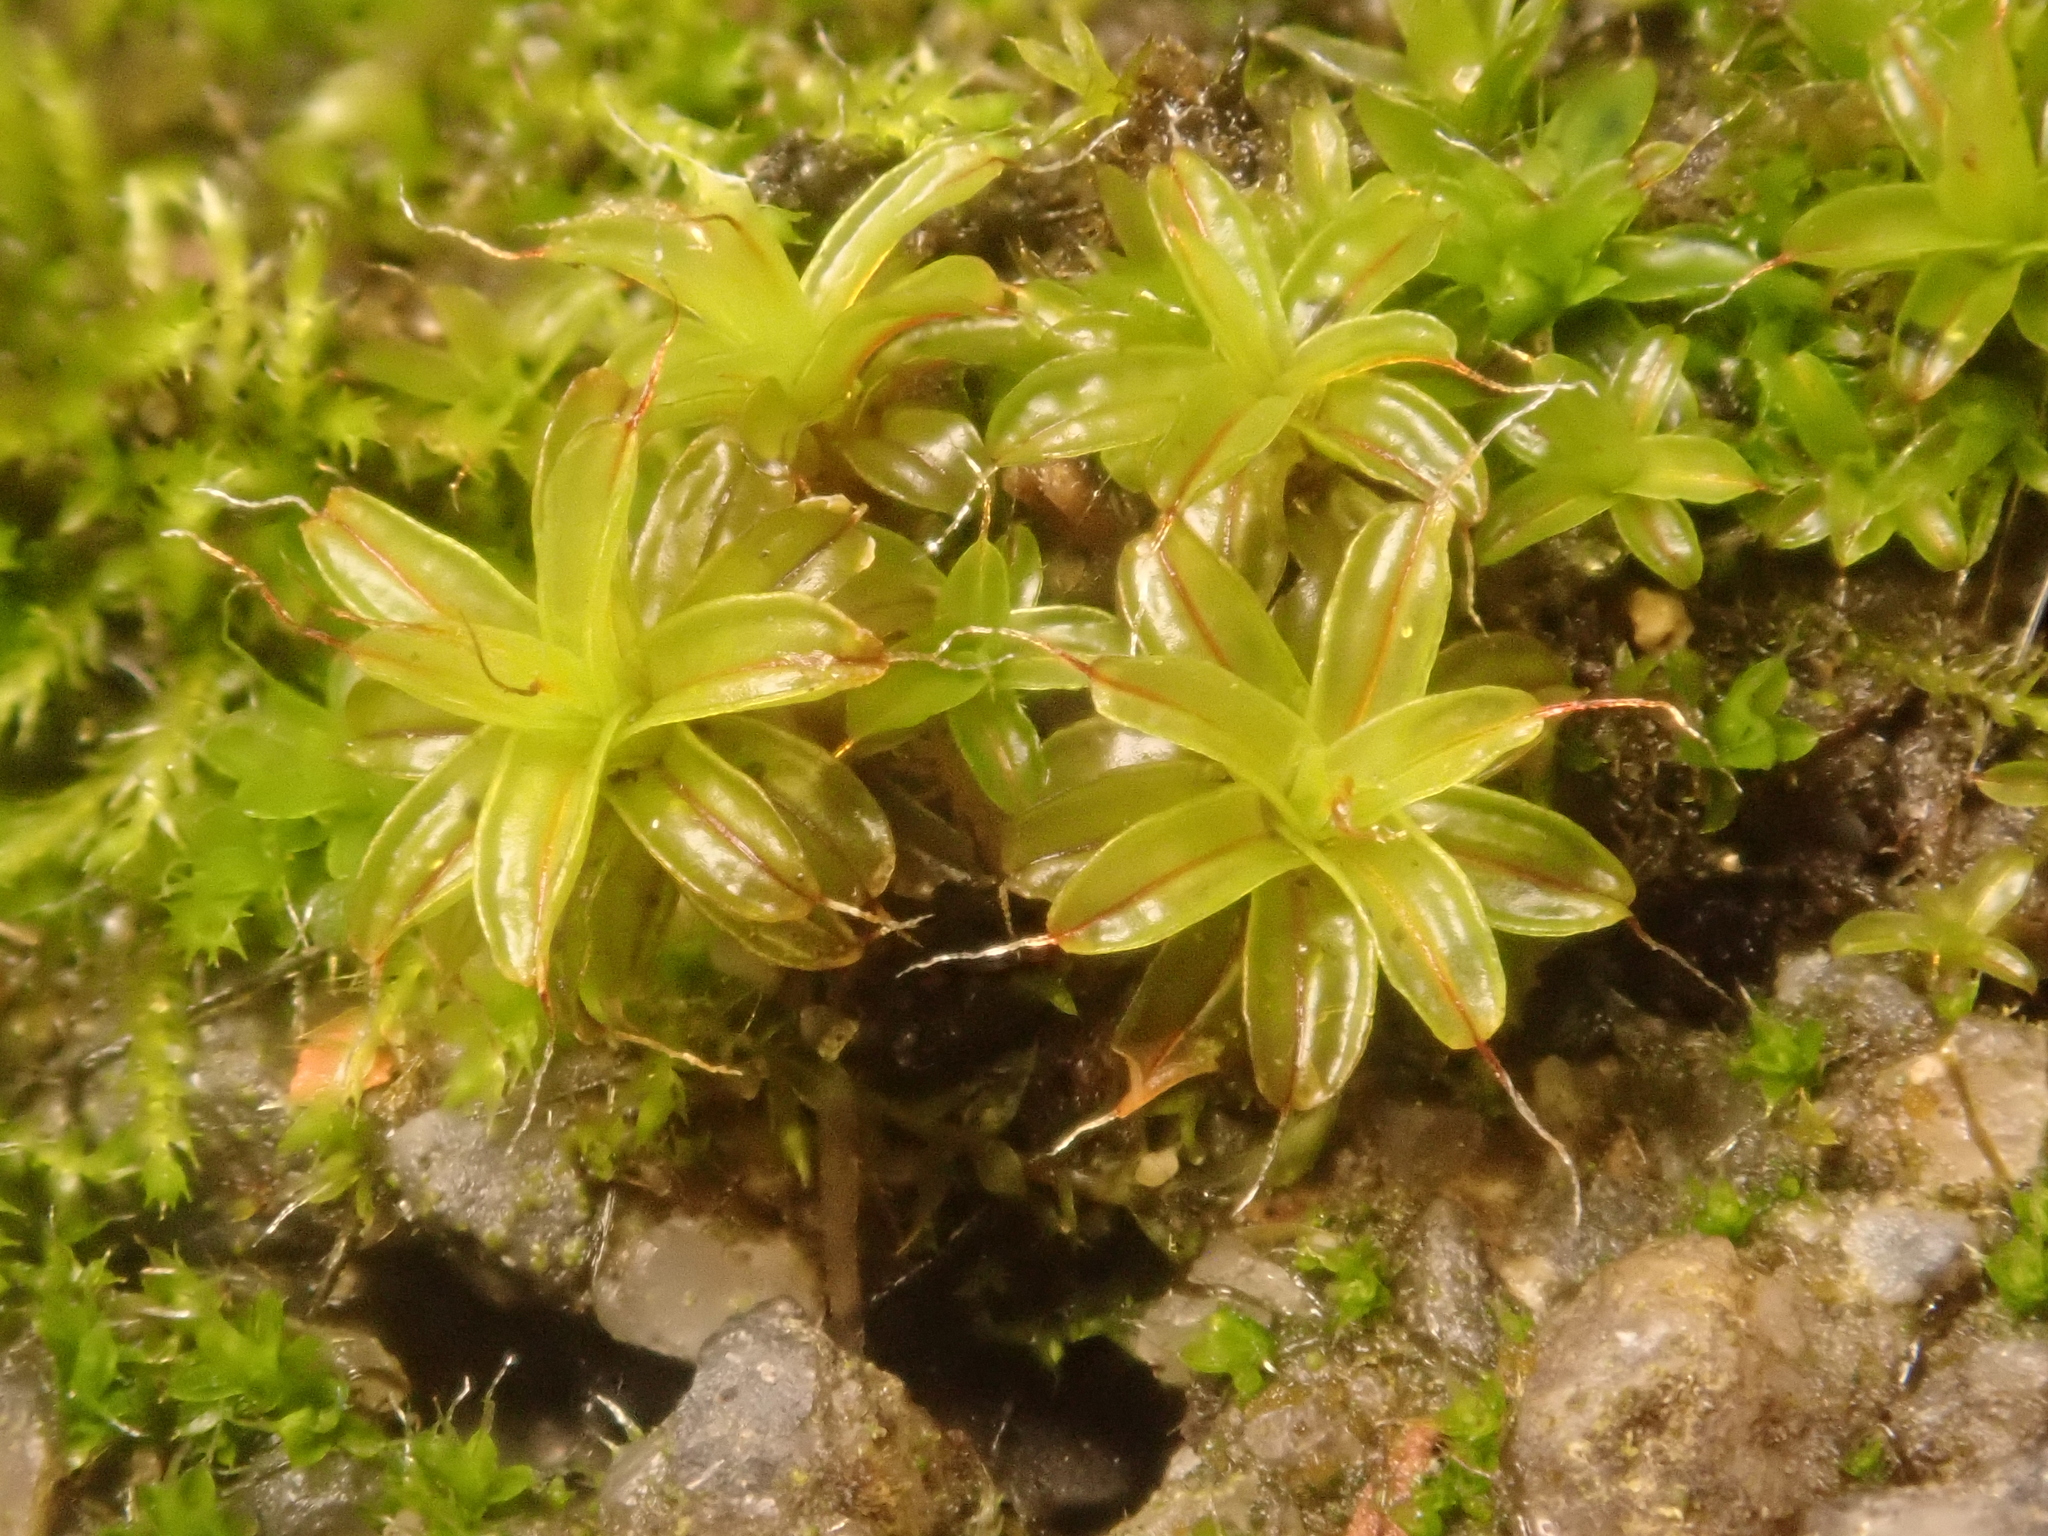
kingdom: Plantae
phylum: Bryophyta
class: Bryopsida
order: Pottiales
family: Pottiaceae
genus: Syntrichia
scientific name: Syntrichia ruralis
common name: Sidewalk screw moss
